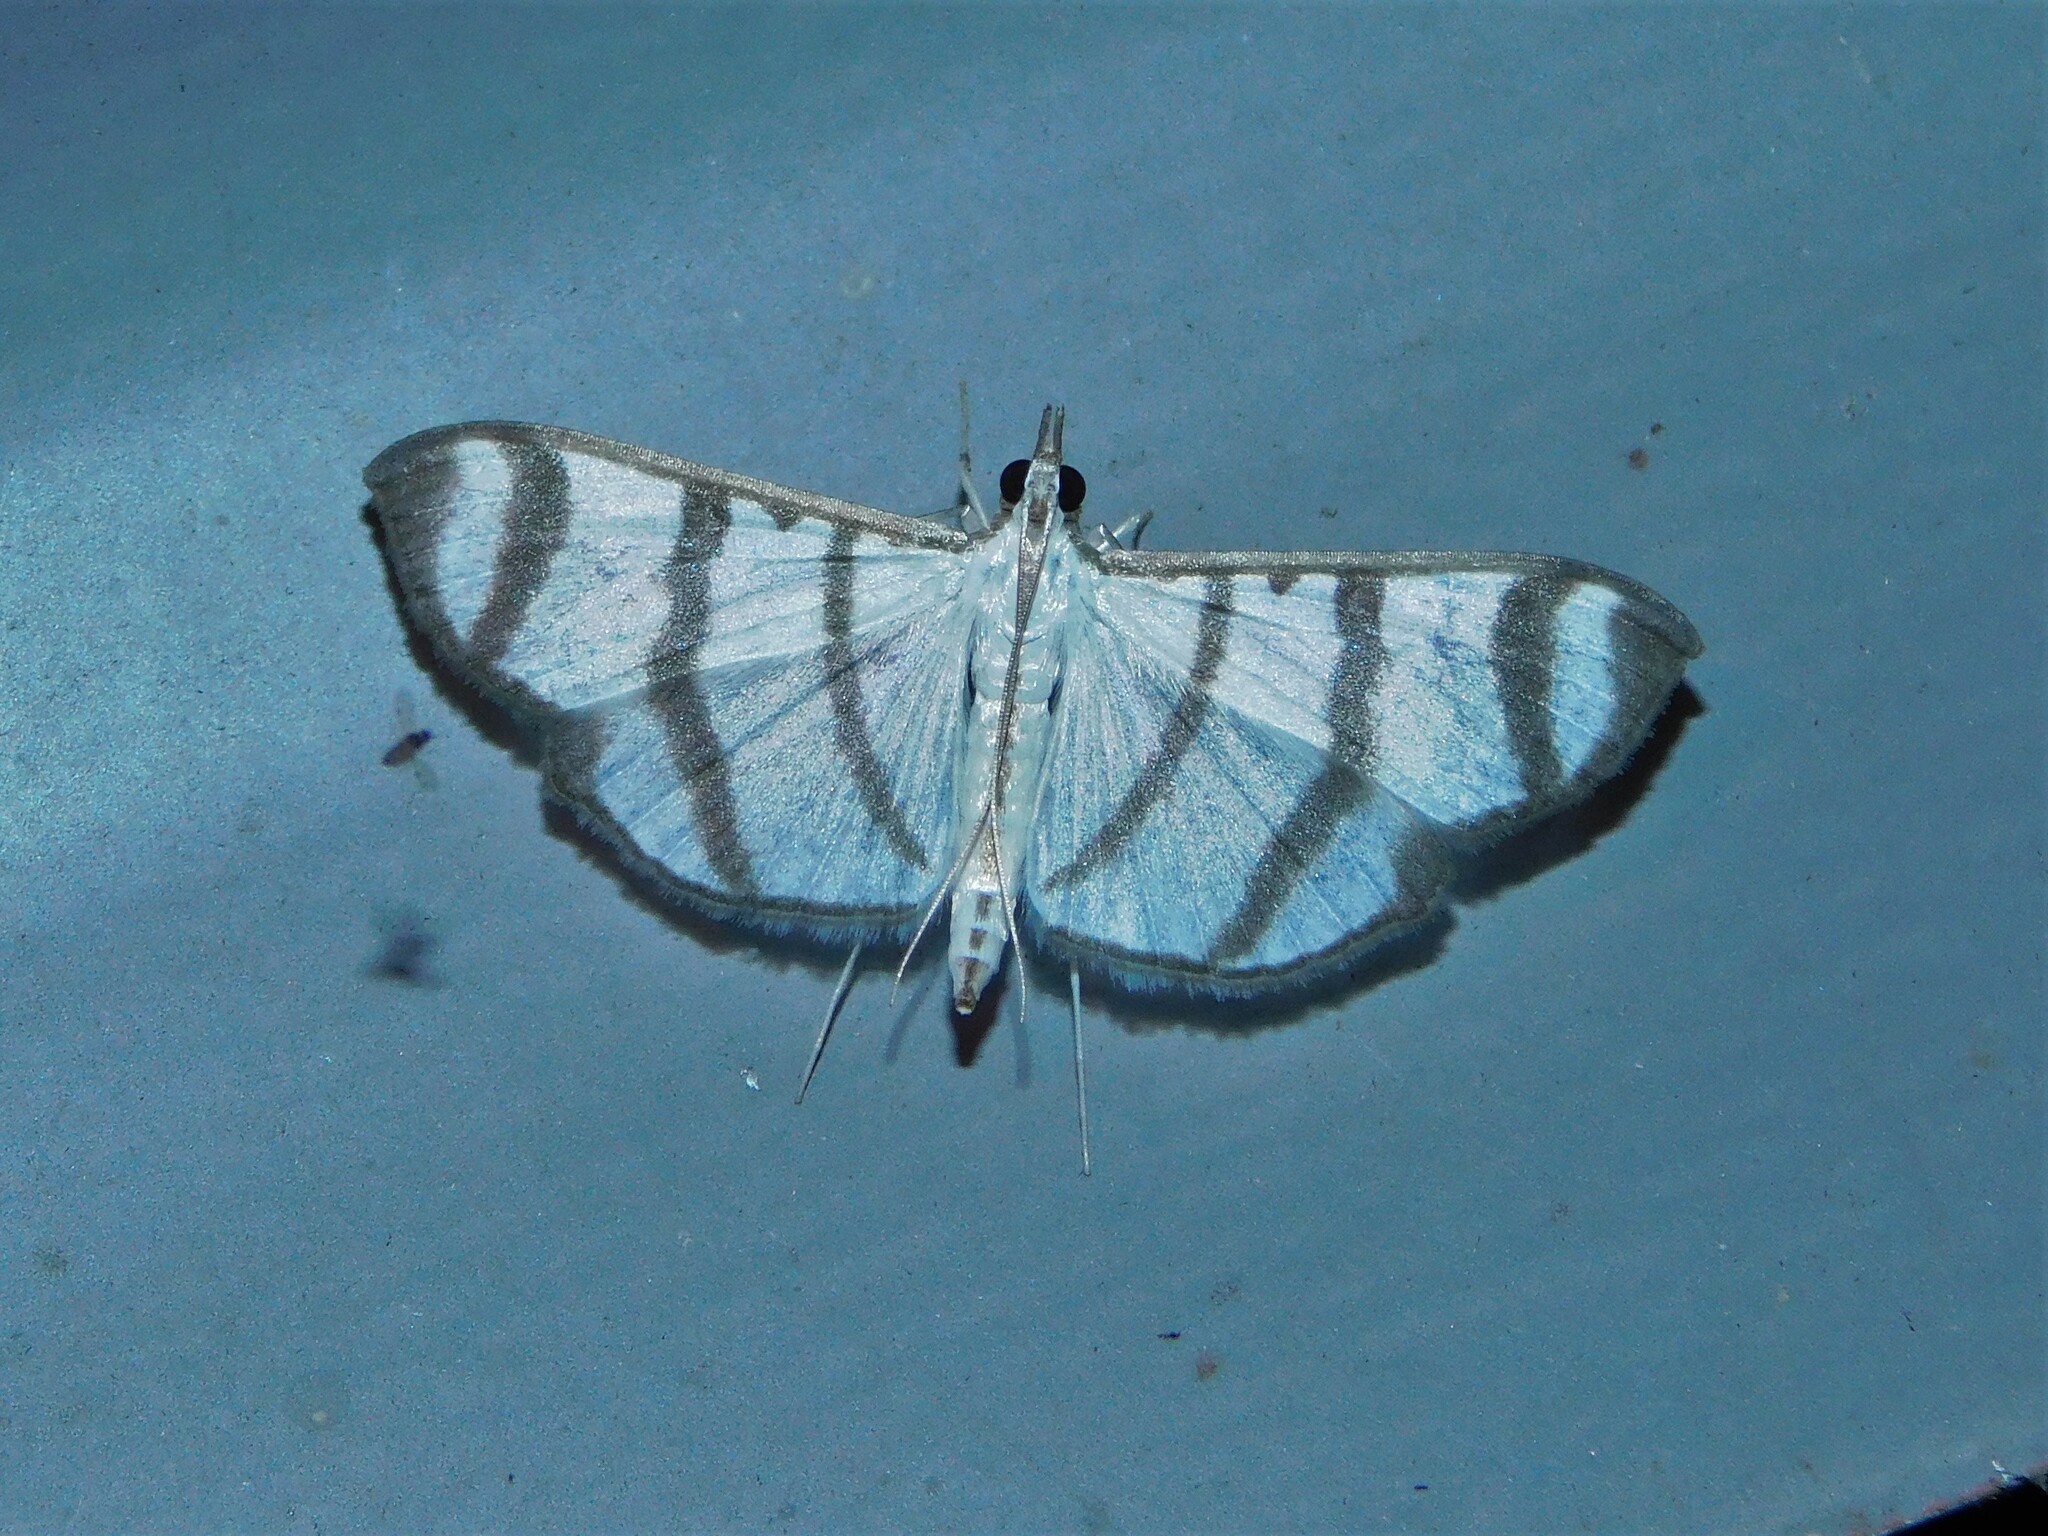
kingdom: Animalia
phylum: Arthropoda
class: Insecta
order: Lepidoptera
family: Crambidae
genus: Zebronia
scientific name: Zebronia phenice
